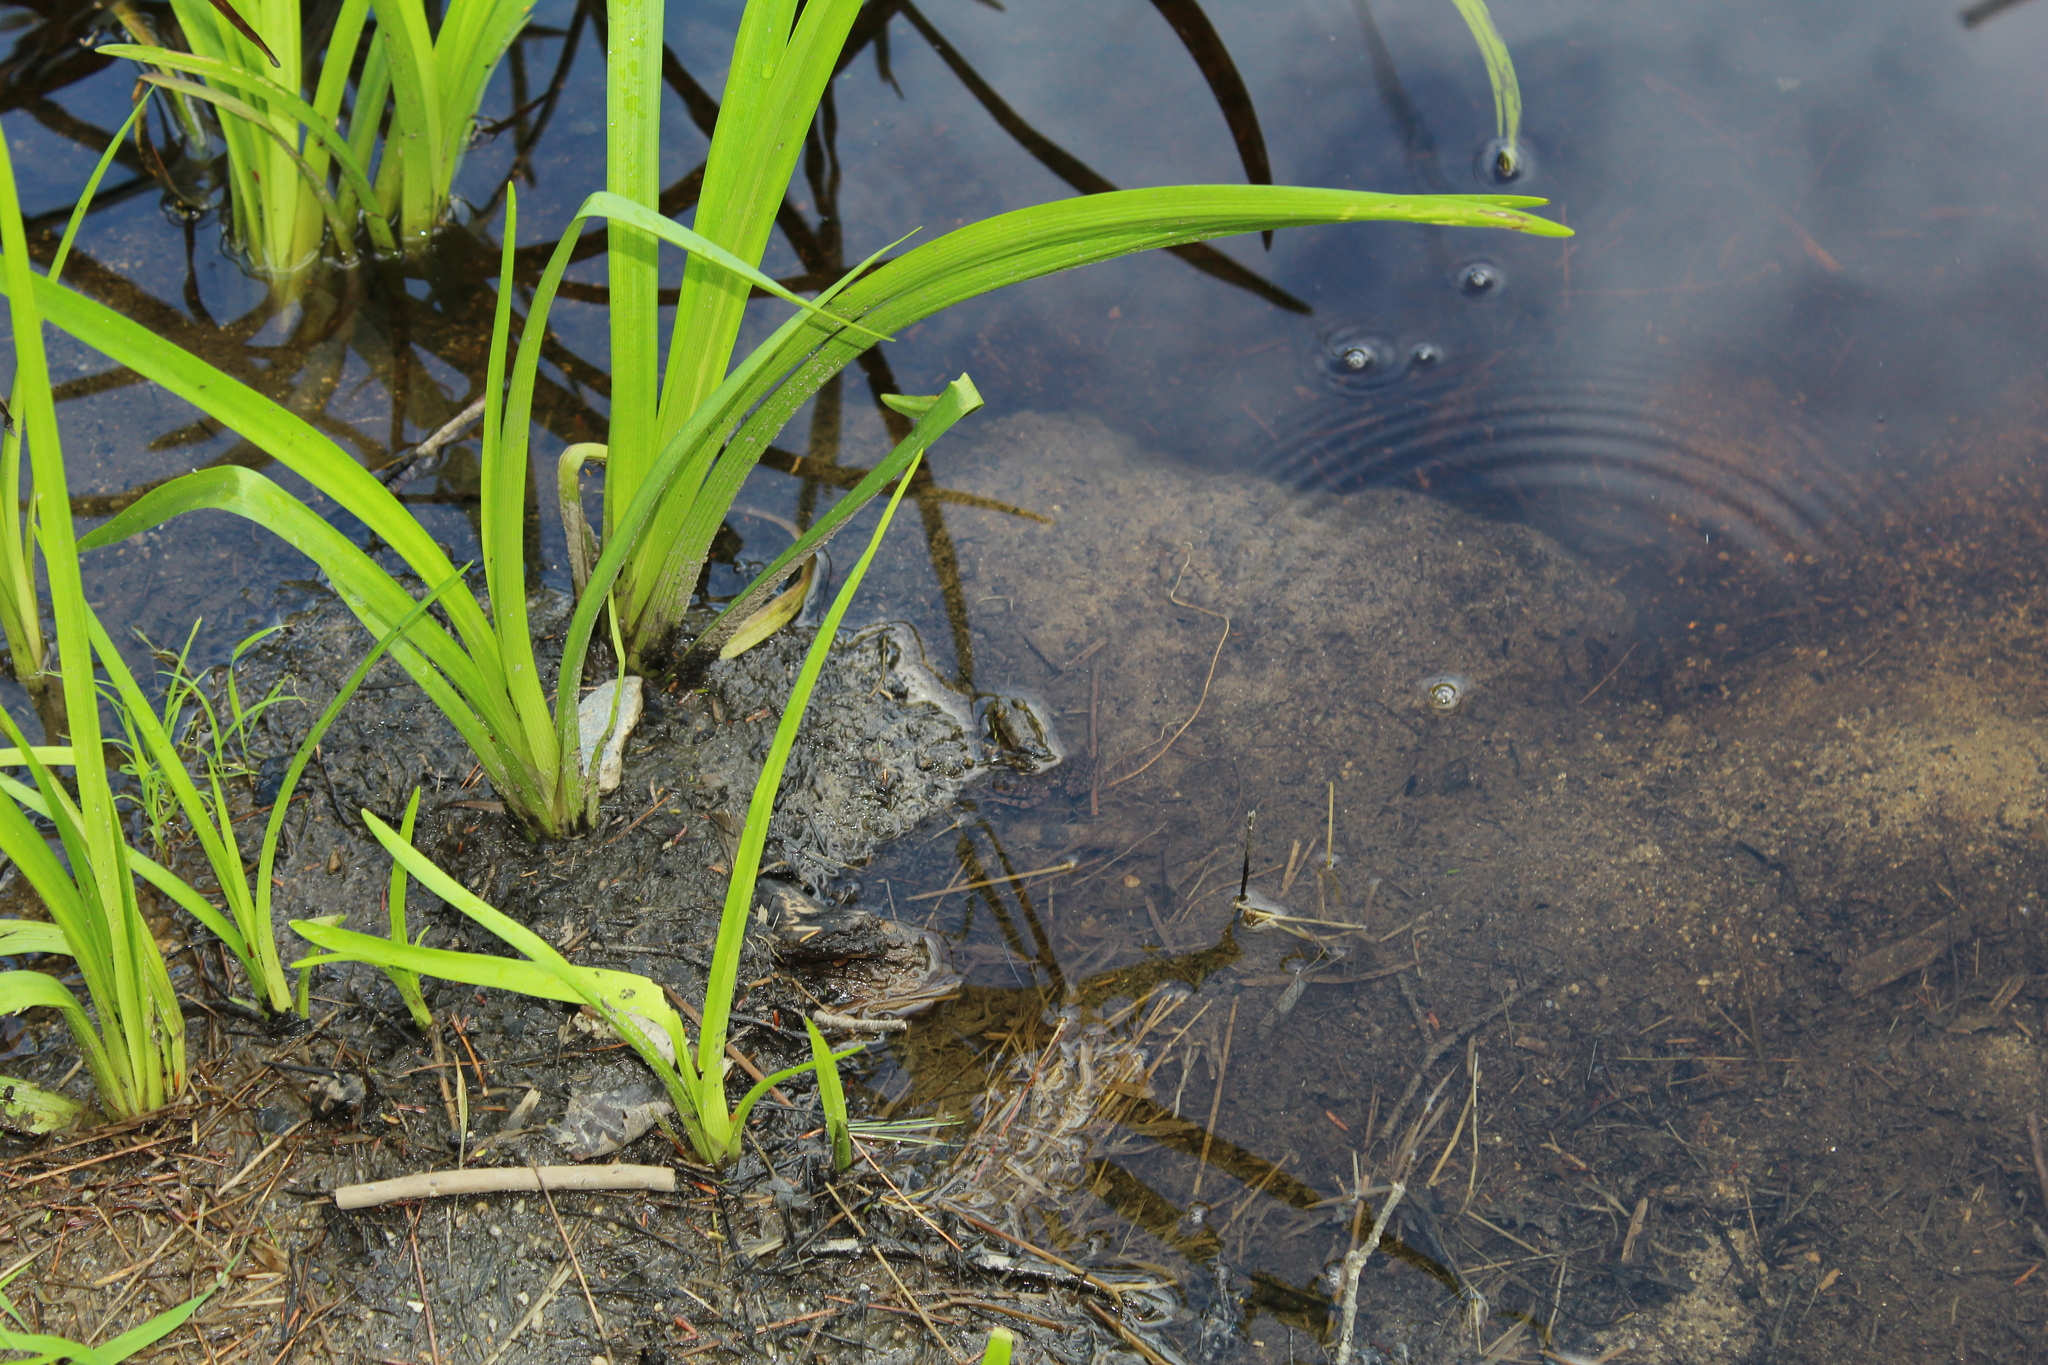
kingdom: Animalia
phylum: Chordata
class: Amphibia
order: Anura
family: Ranidae
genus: Lithobates
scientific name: Lithobates clamitans
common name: Green frog
